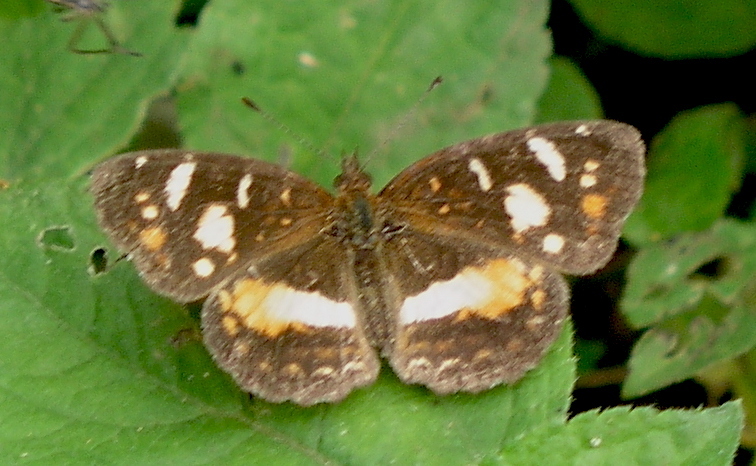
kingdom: Animalia
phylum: Arthropoda
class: Insecta
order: Lepidoptera
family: Nymphalidae
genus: Ortilia
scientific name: Ortilia orthia
